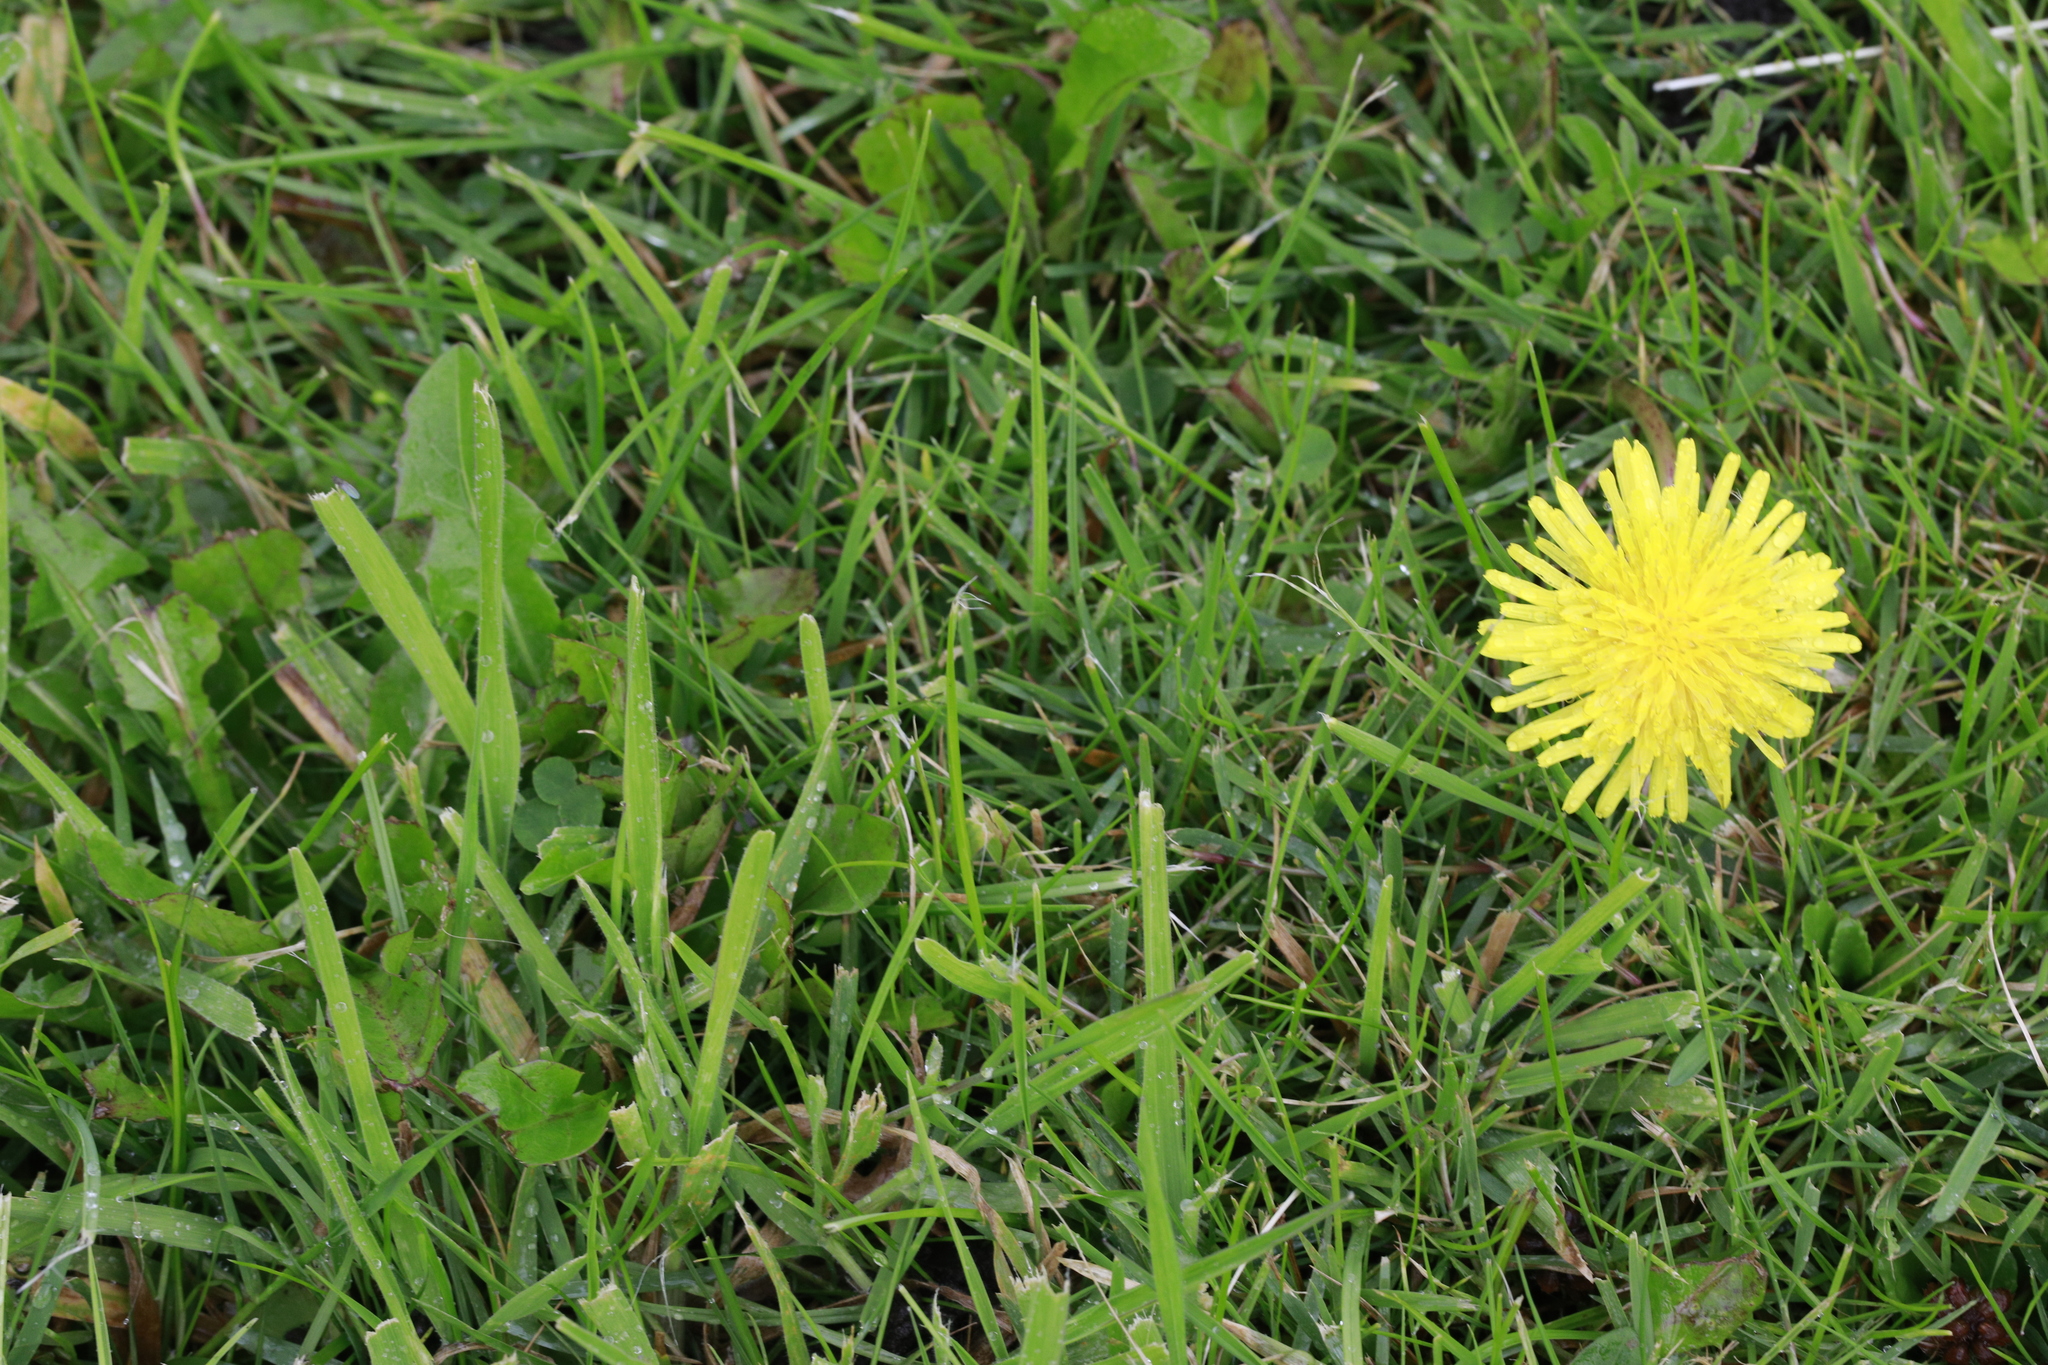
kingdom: Plantae
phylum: Tracheophyta
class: Magnoliopsida
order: Asterales
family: Asteraceae
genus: Taraxacum
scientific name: Taraxacum officinale
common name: Common dandelion
